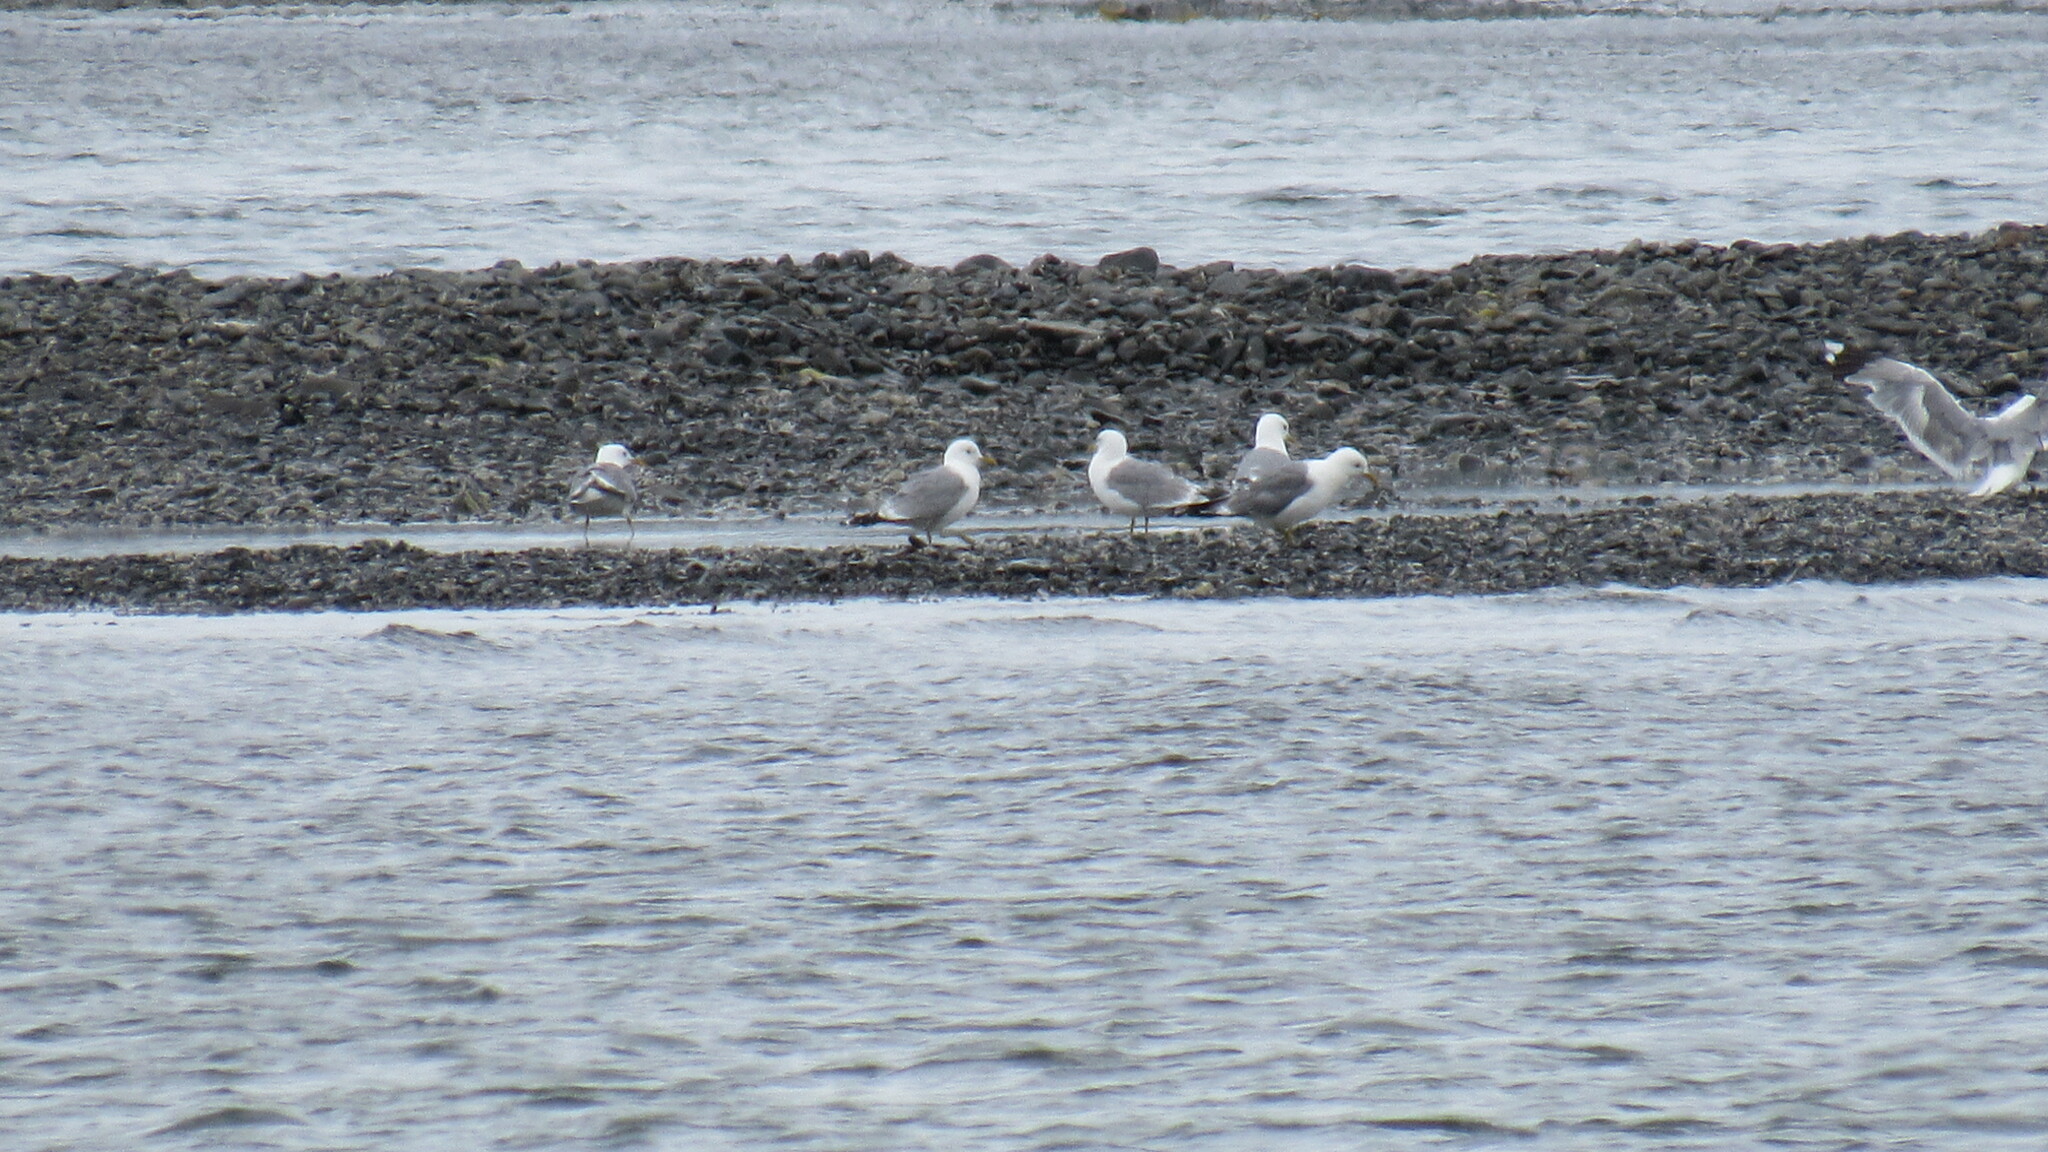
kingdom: Animalia
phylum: Chordata
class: Aves
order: Charadriiformes
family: Laridae
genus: Larus
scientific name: Larus canus
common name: Mew gull
